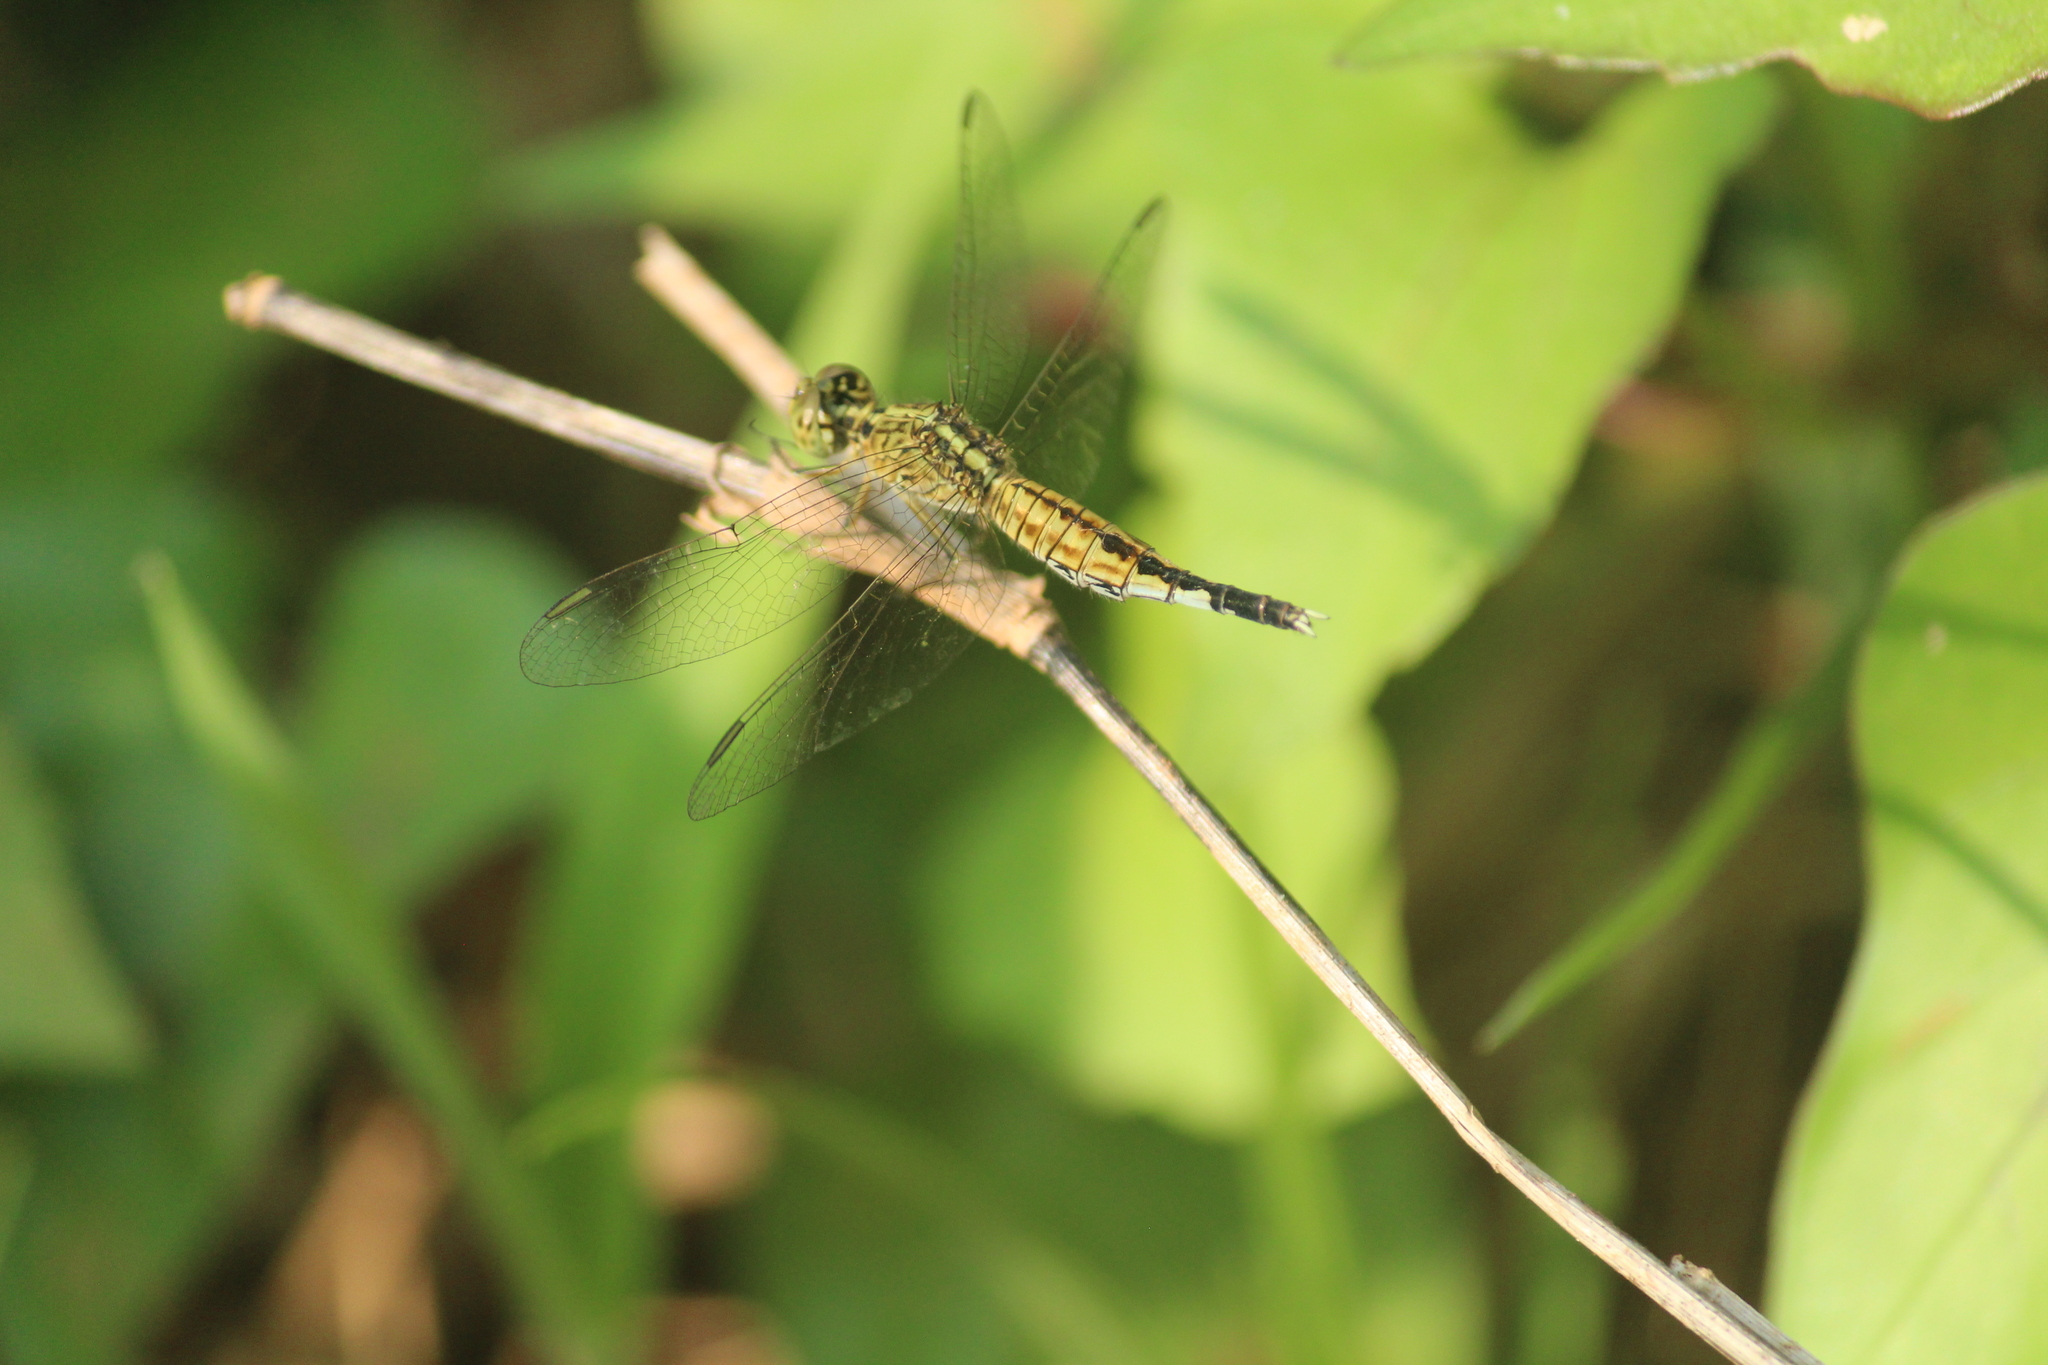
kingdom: Animalia
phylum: Arthropoda
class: Insecta
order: Odonata
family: Libellulidae
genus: Acisoma
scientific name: Acisoma panorpoides
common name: Asian pintail
